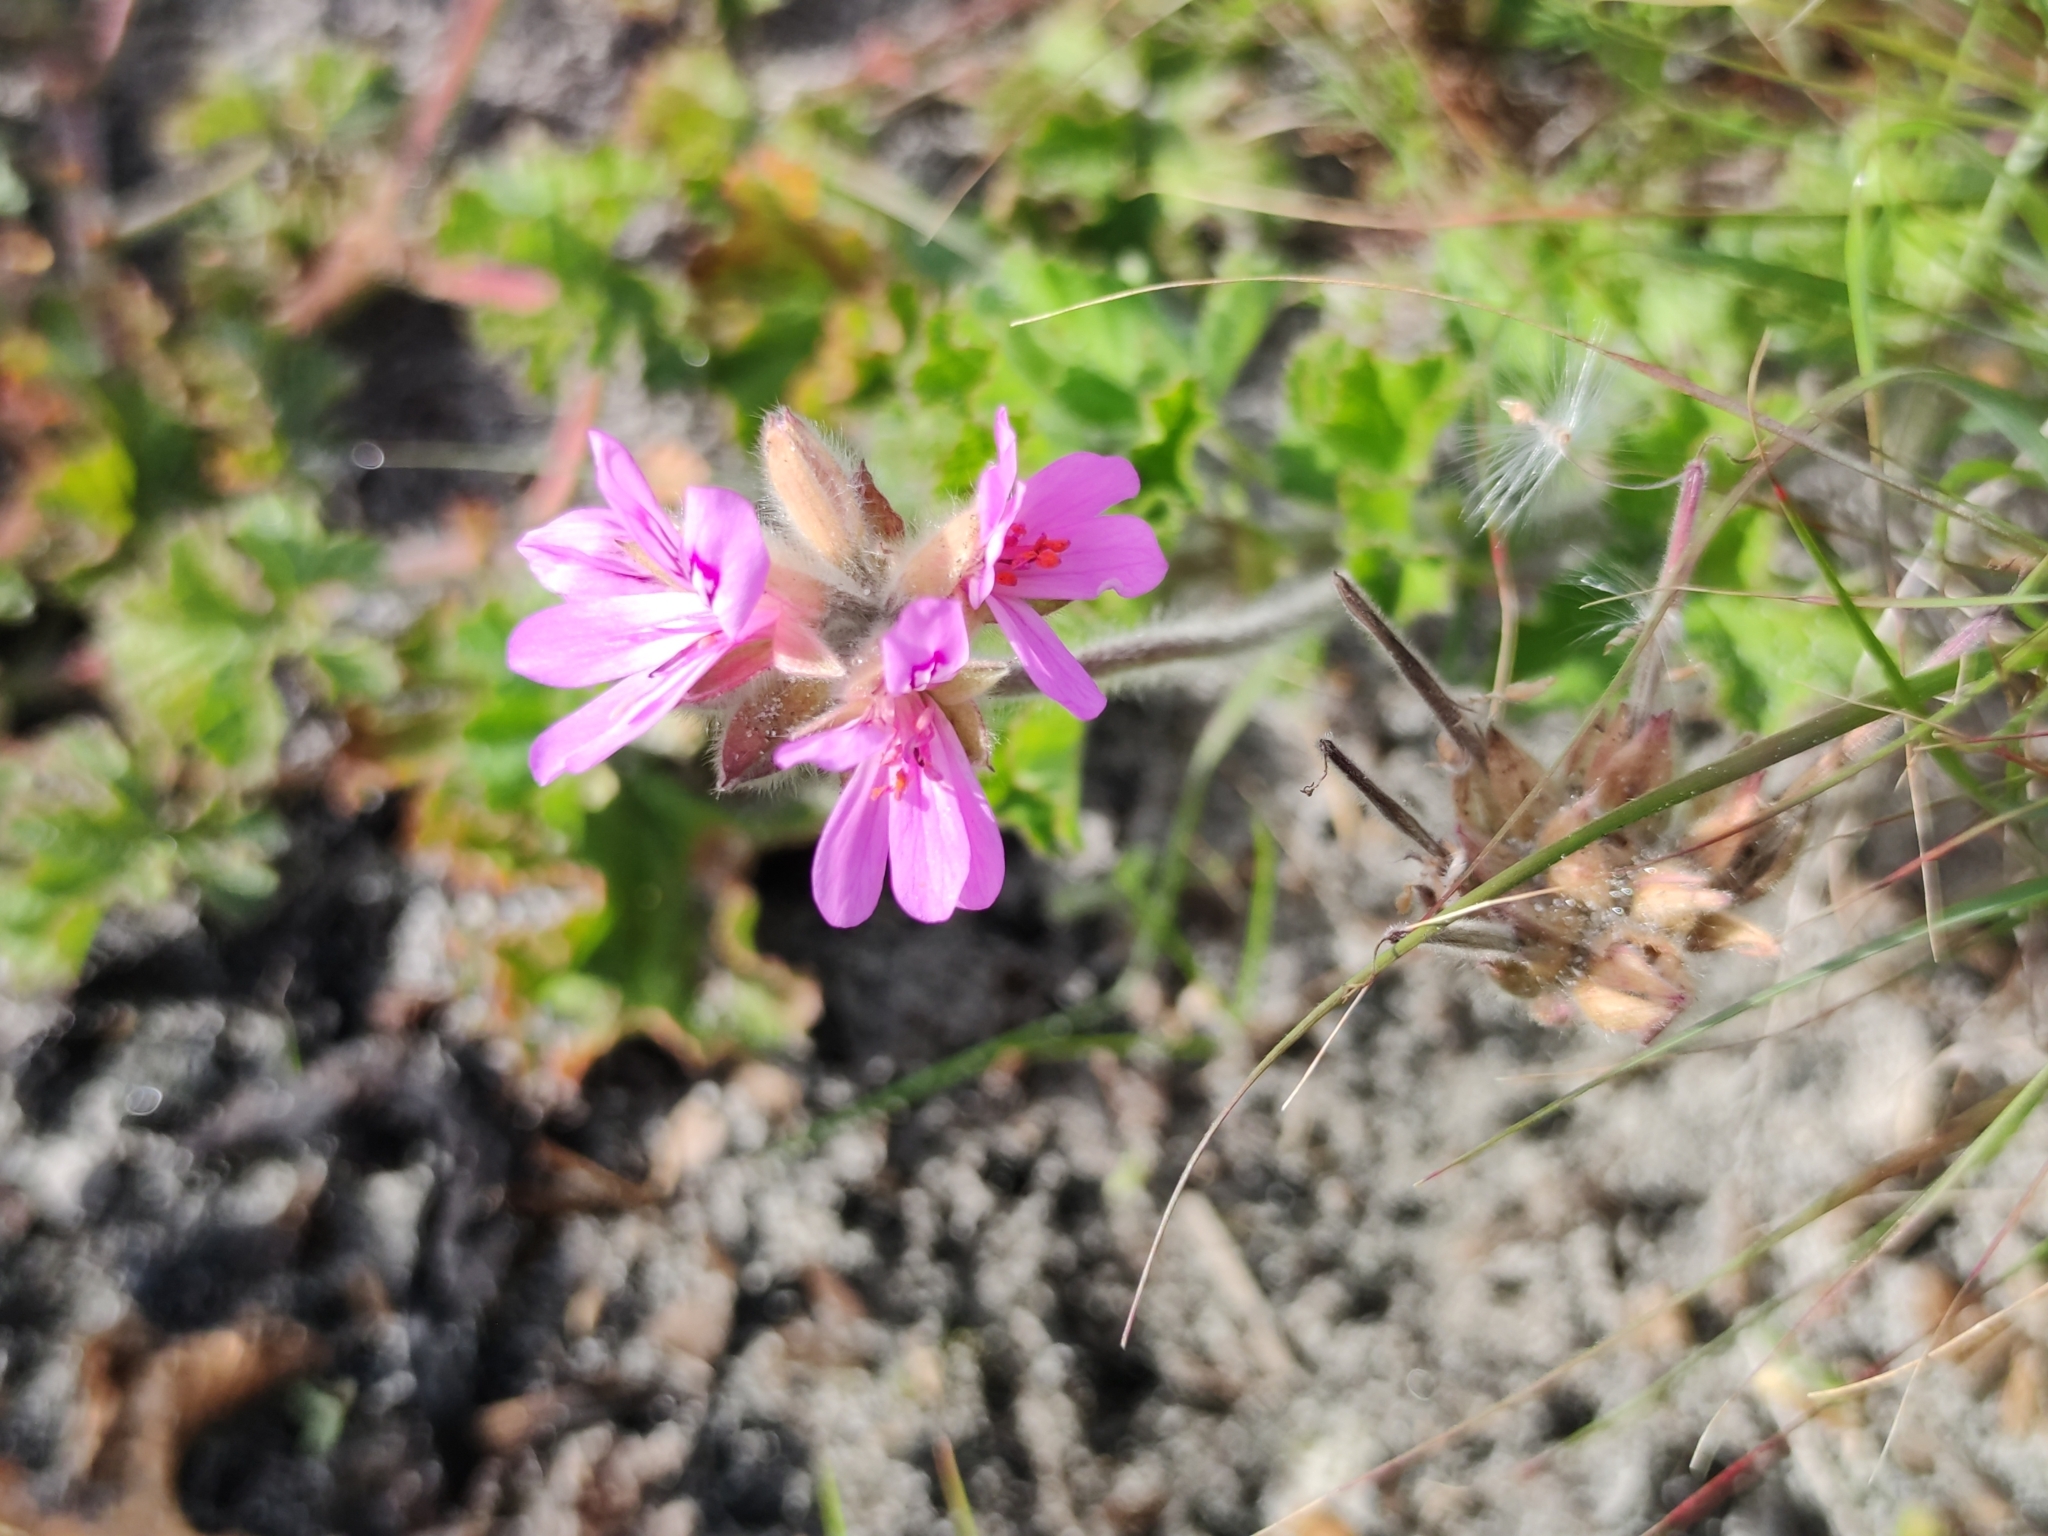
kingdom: Plantae
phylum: Tracheophyta
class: Magnoliopsida
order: Geraniales
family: Geraniaceae
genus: Pelargonium
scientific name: Pelargonium capitatum
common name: Rose scented geranium
